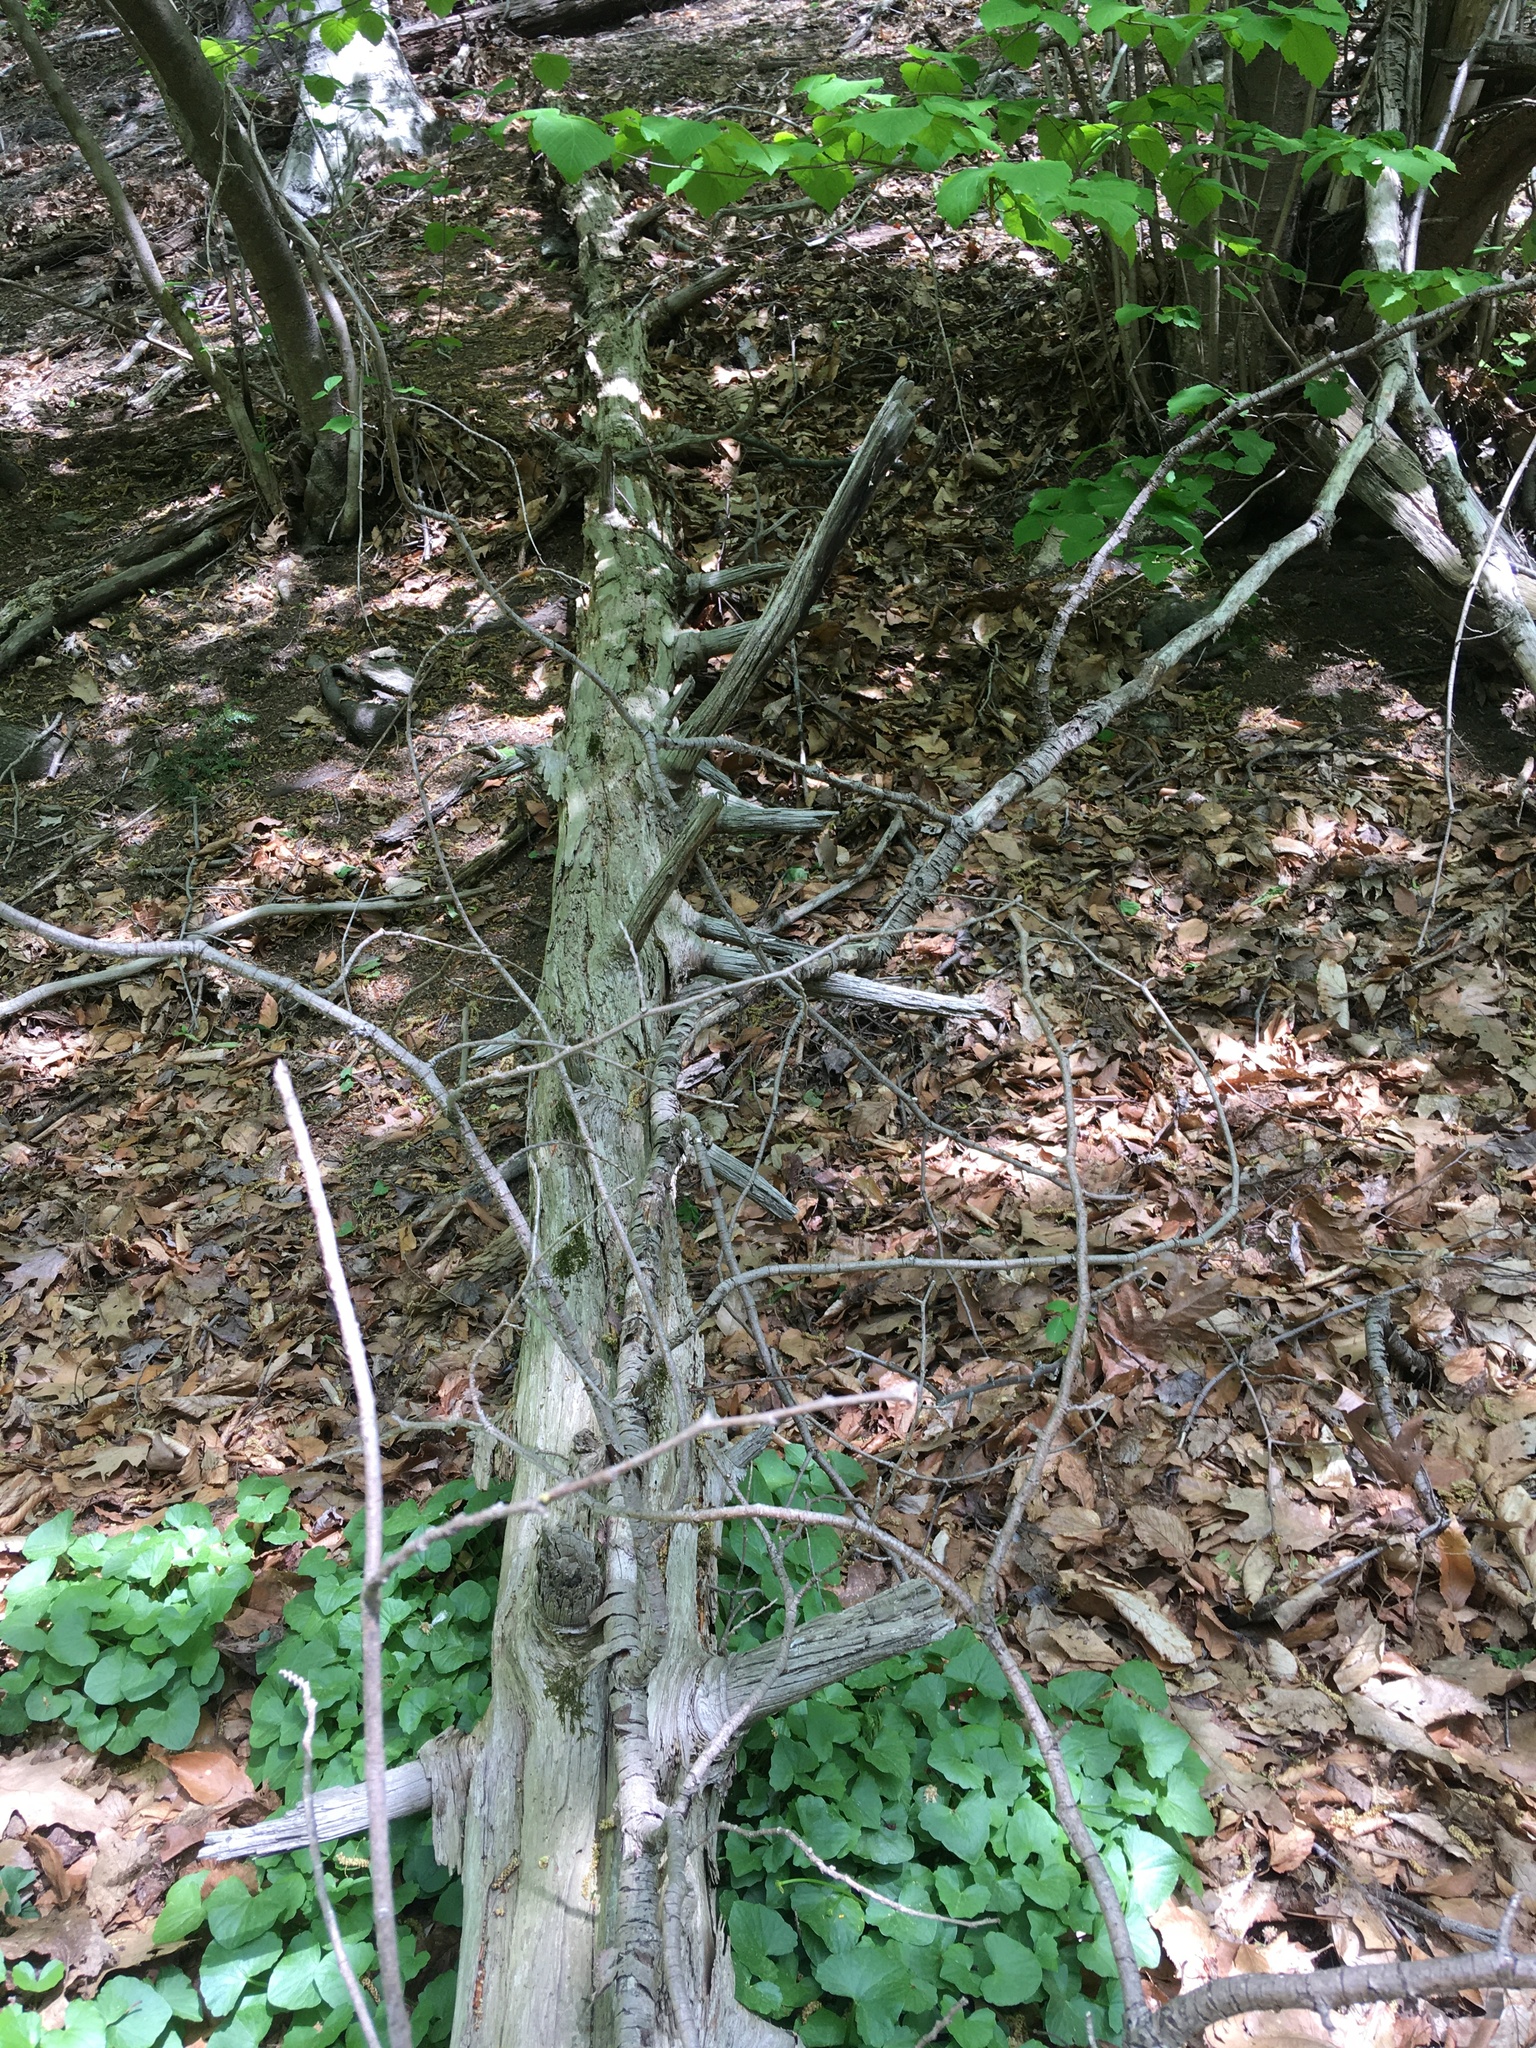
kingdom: Plantae
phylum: Tracheophyta
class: Pinopsida
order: Pinales
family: Pinaceae
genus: Tsuga
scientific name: Tsuga canadensis
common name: Eastern hemlock
